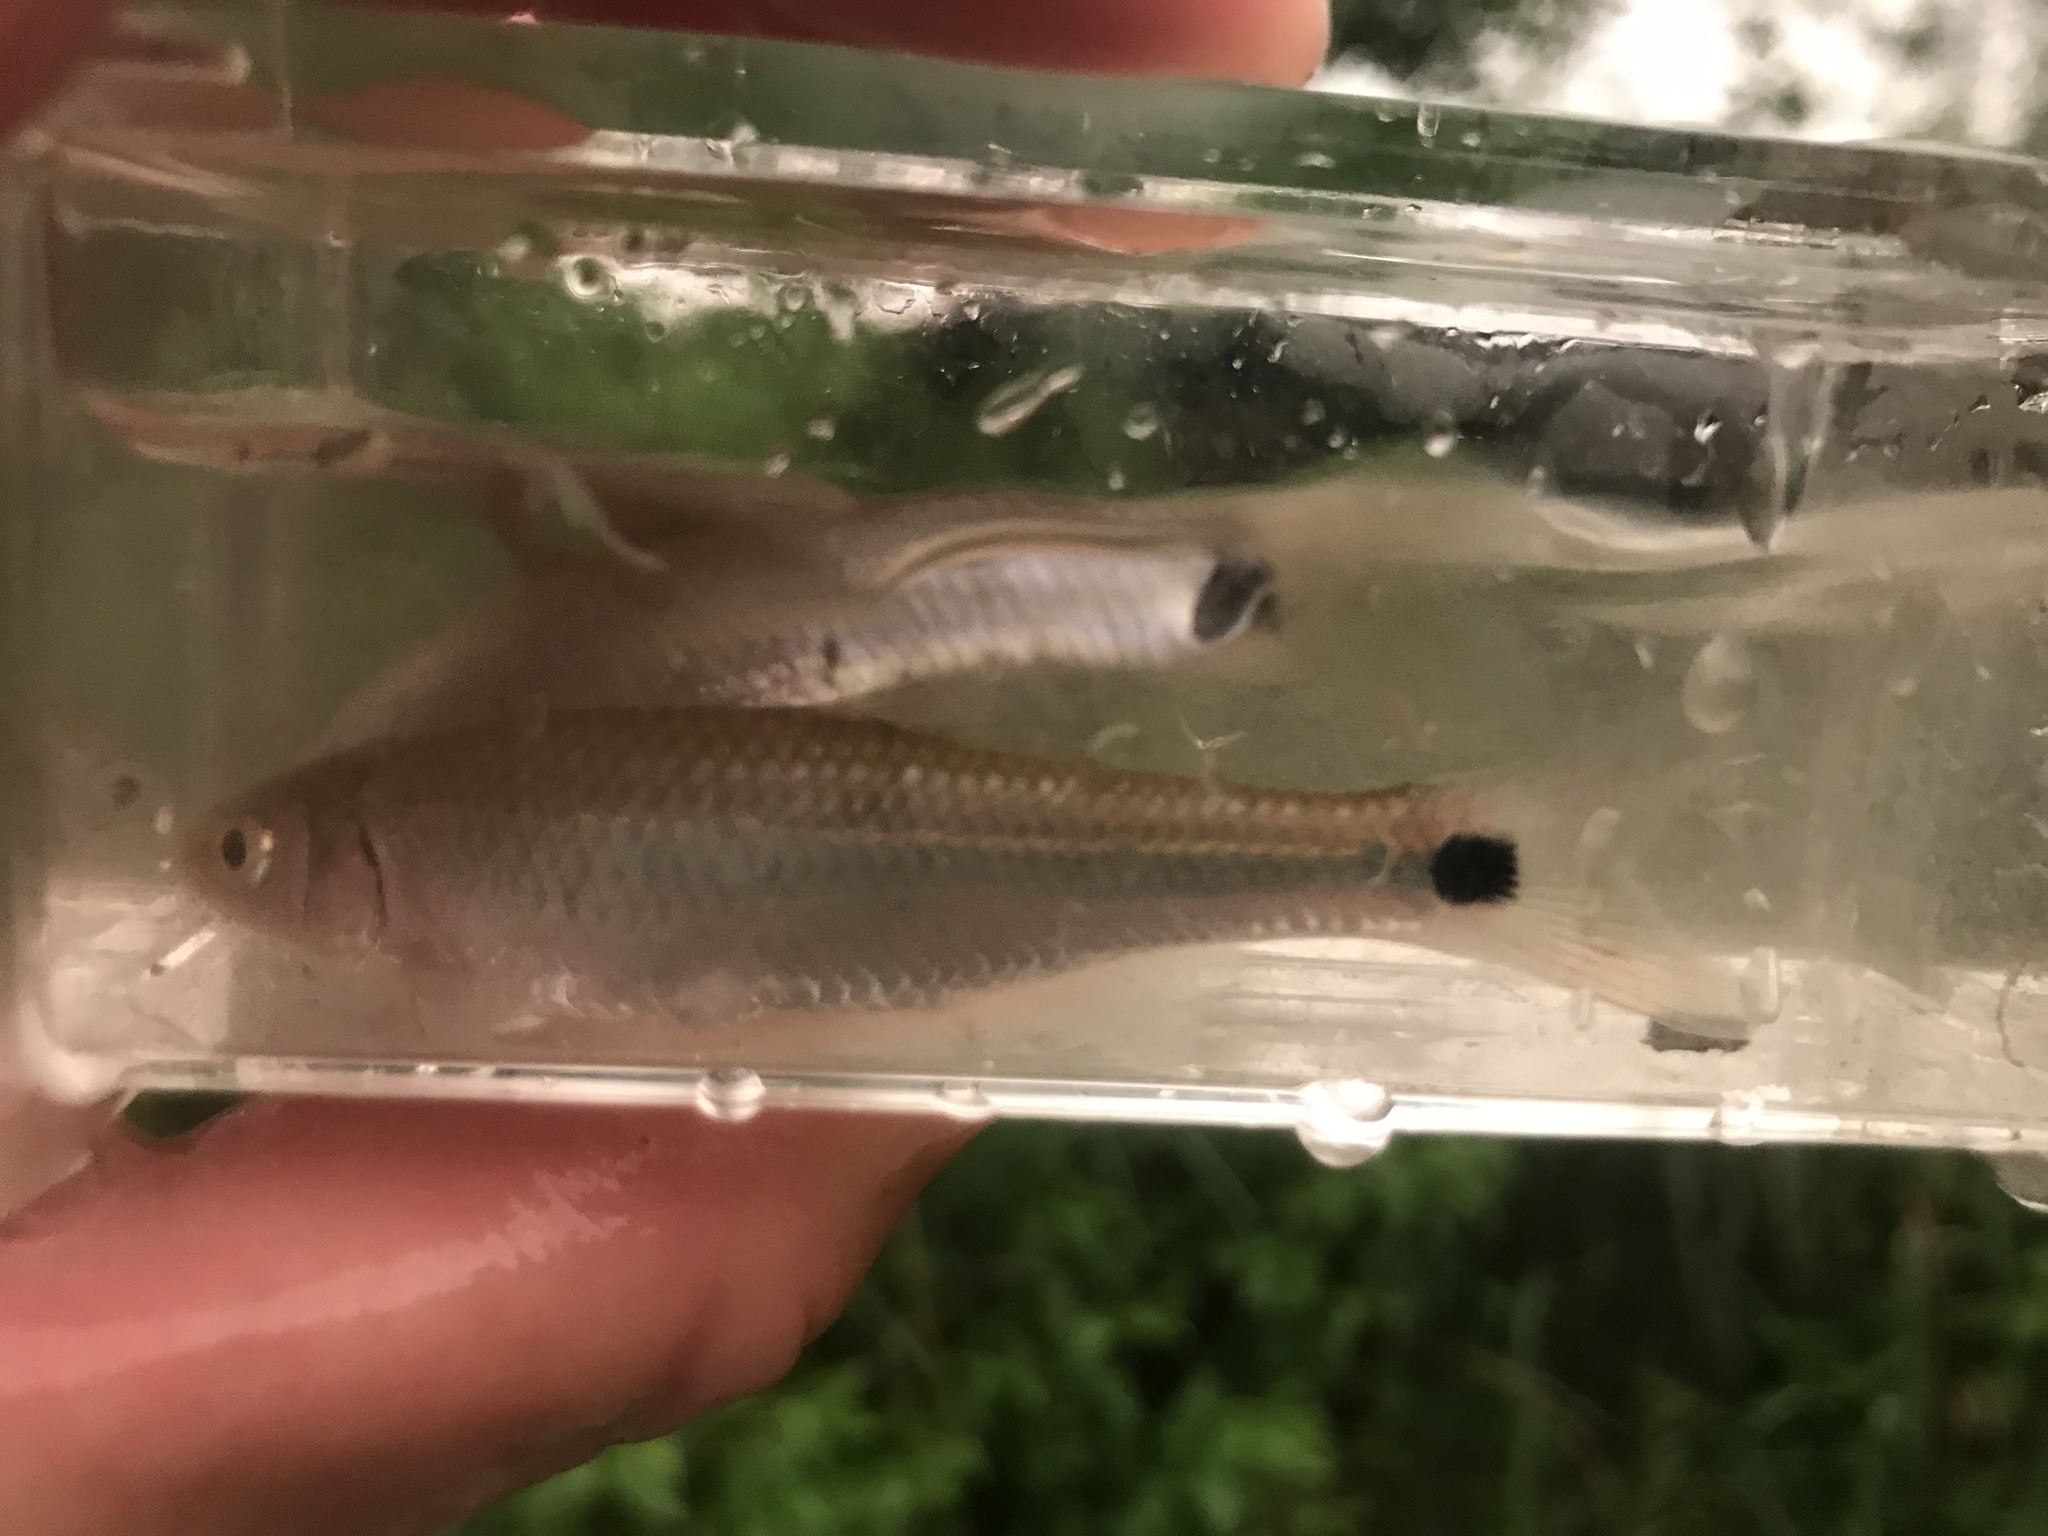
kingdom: Animalia
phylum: Chordata
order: Cypriniformes
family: Cyprinidae
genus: Cyprinella
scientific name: Cyprinella venusta
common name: Blacktail shiner
